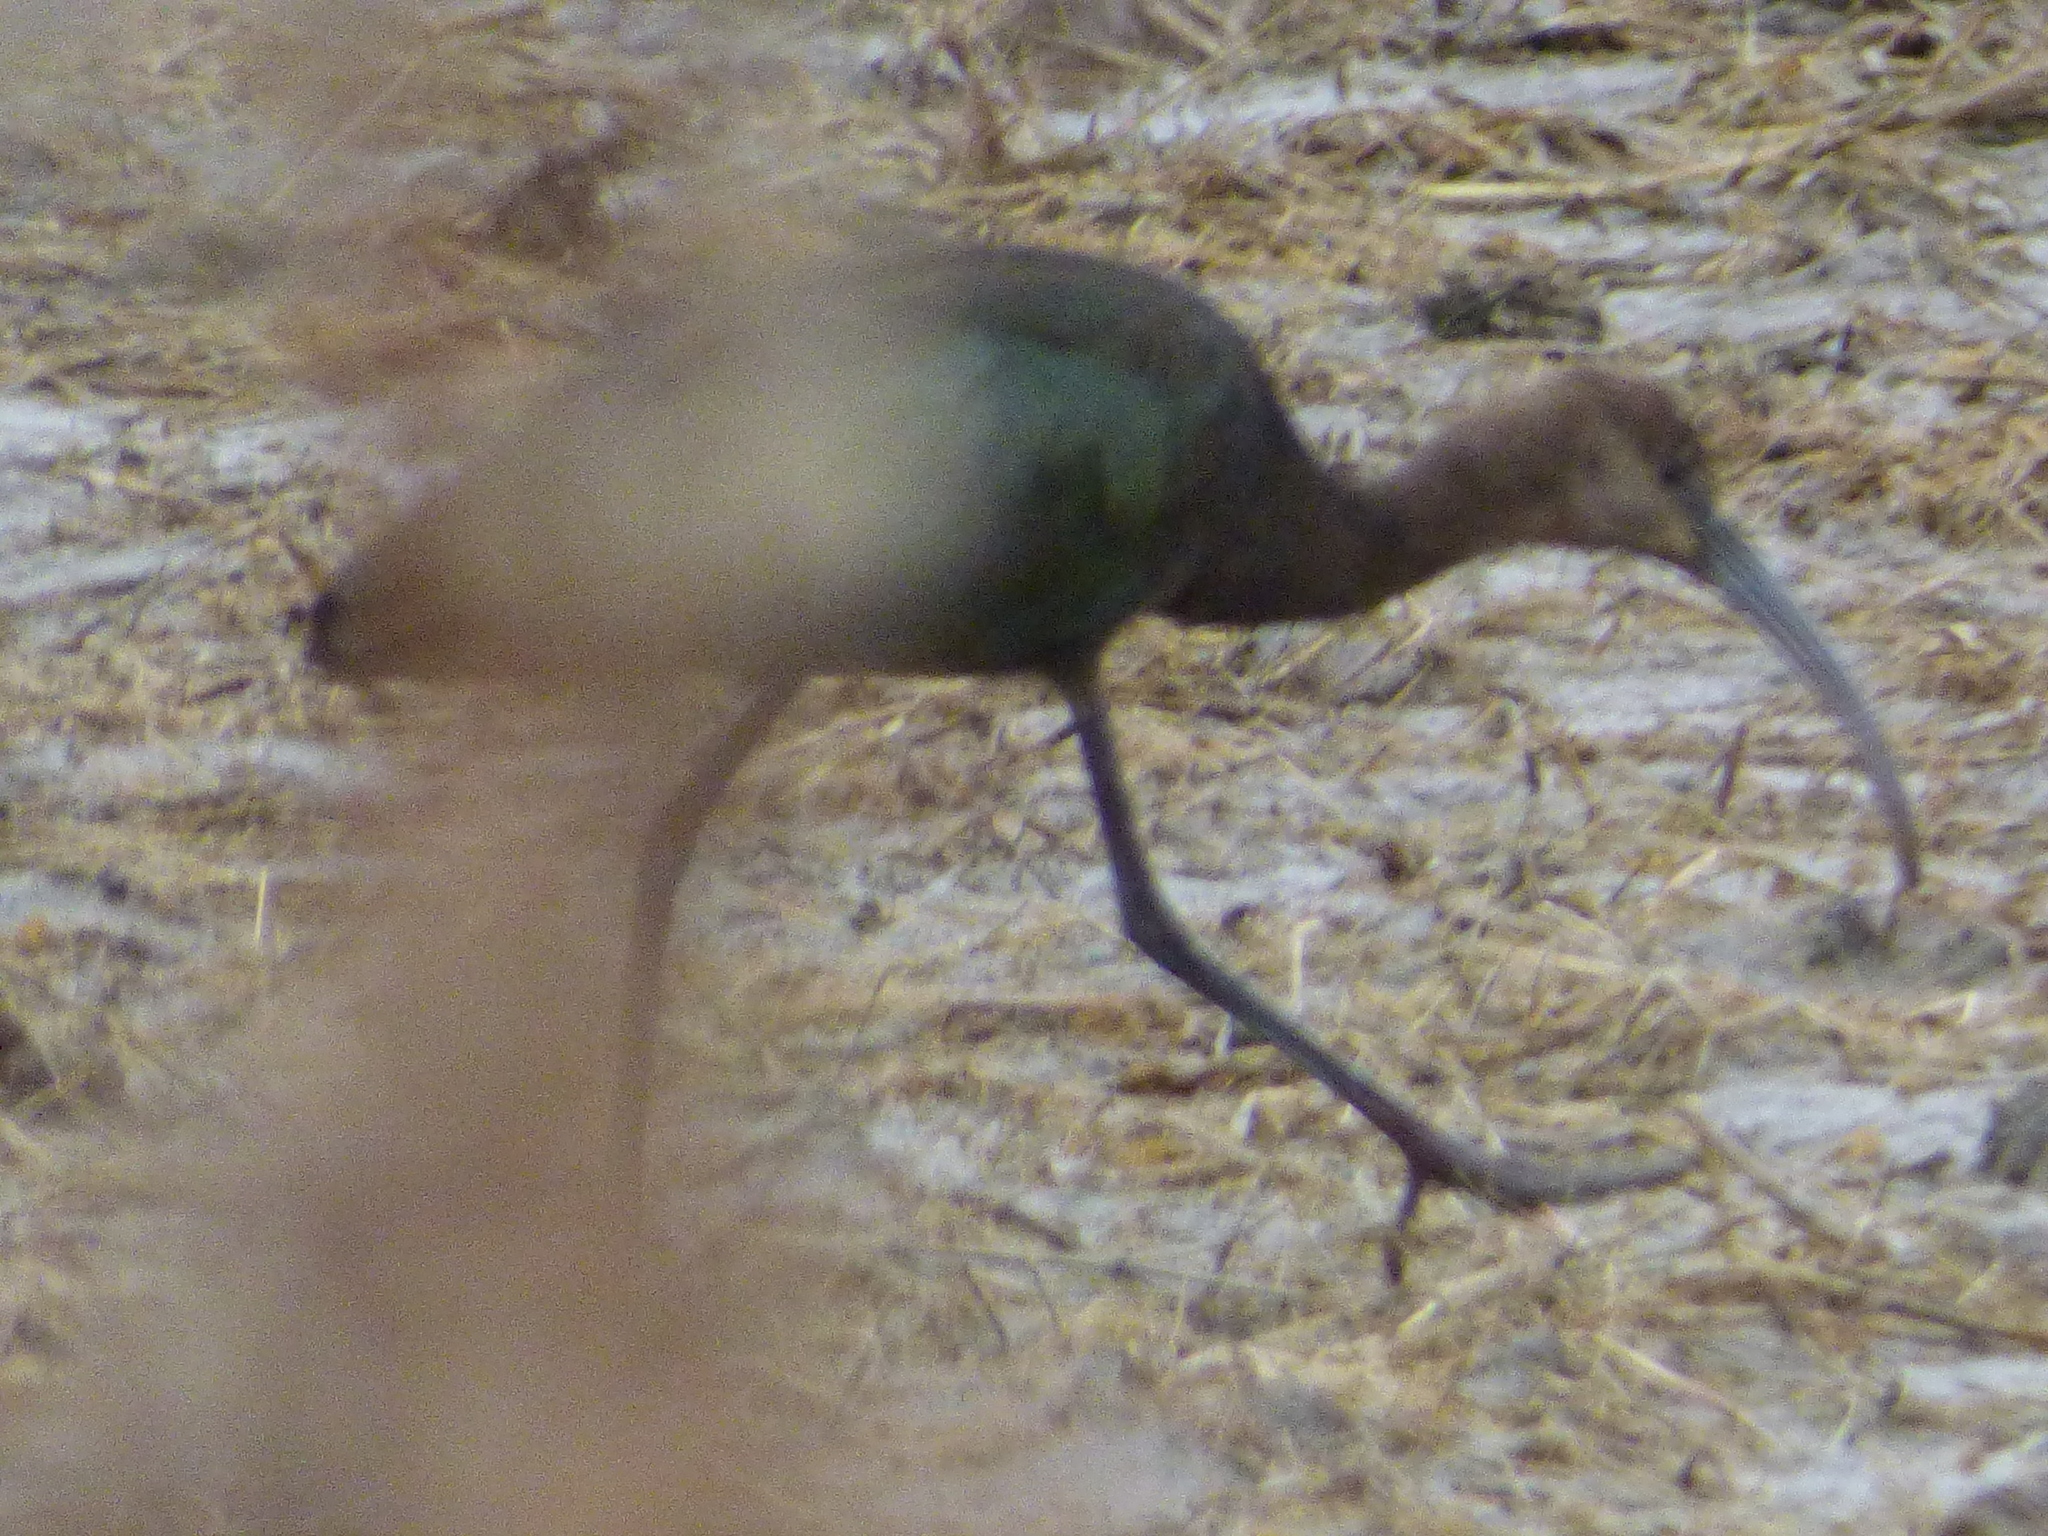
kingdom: Animalia
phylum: Chordata
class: Aves
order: Pelecaniformes
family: Threskiornithidae
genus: Plegadis
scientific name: Plegadis chihi
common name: White-faced ibis
